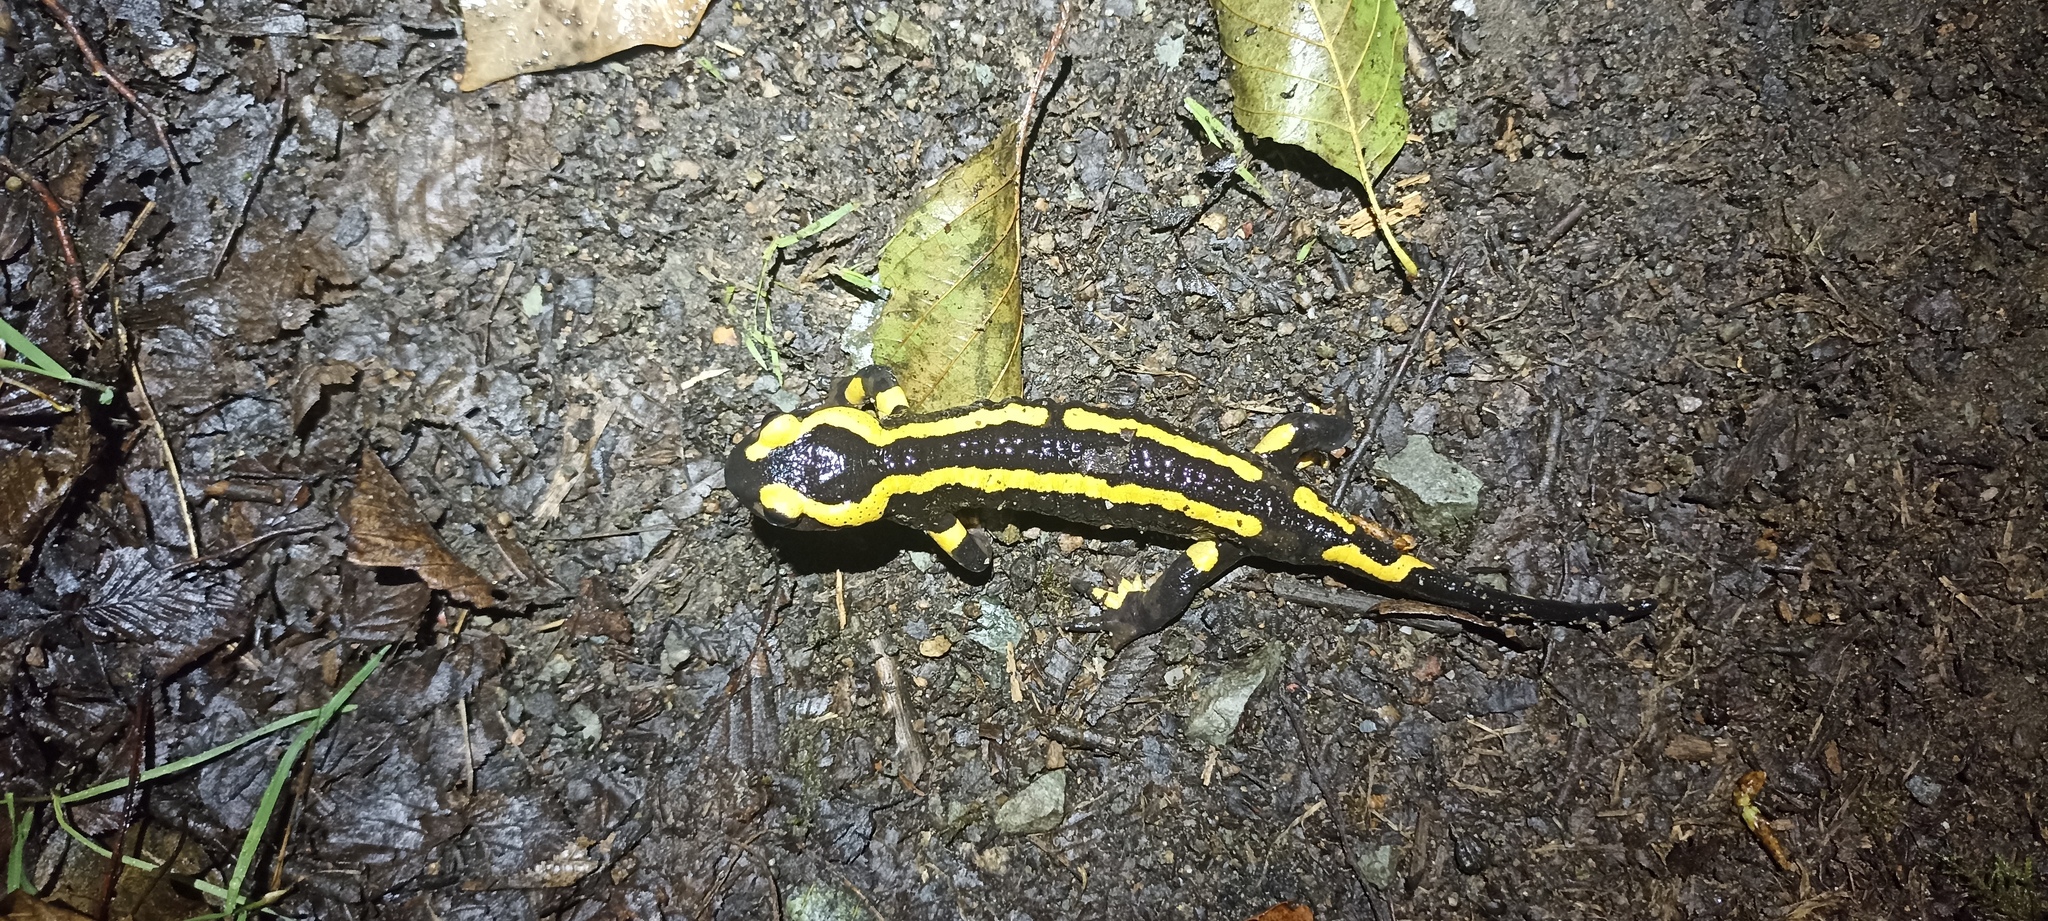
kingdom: Animalia
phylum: Chordata
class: Amphibia
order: Caudata
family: Salamandridae
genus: Salamandra
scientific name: Salamandra salamandra
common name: Fire salamander
